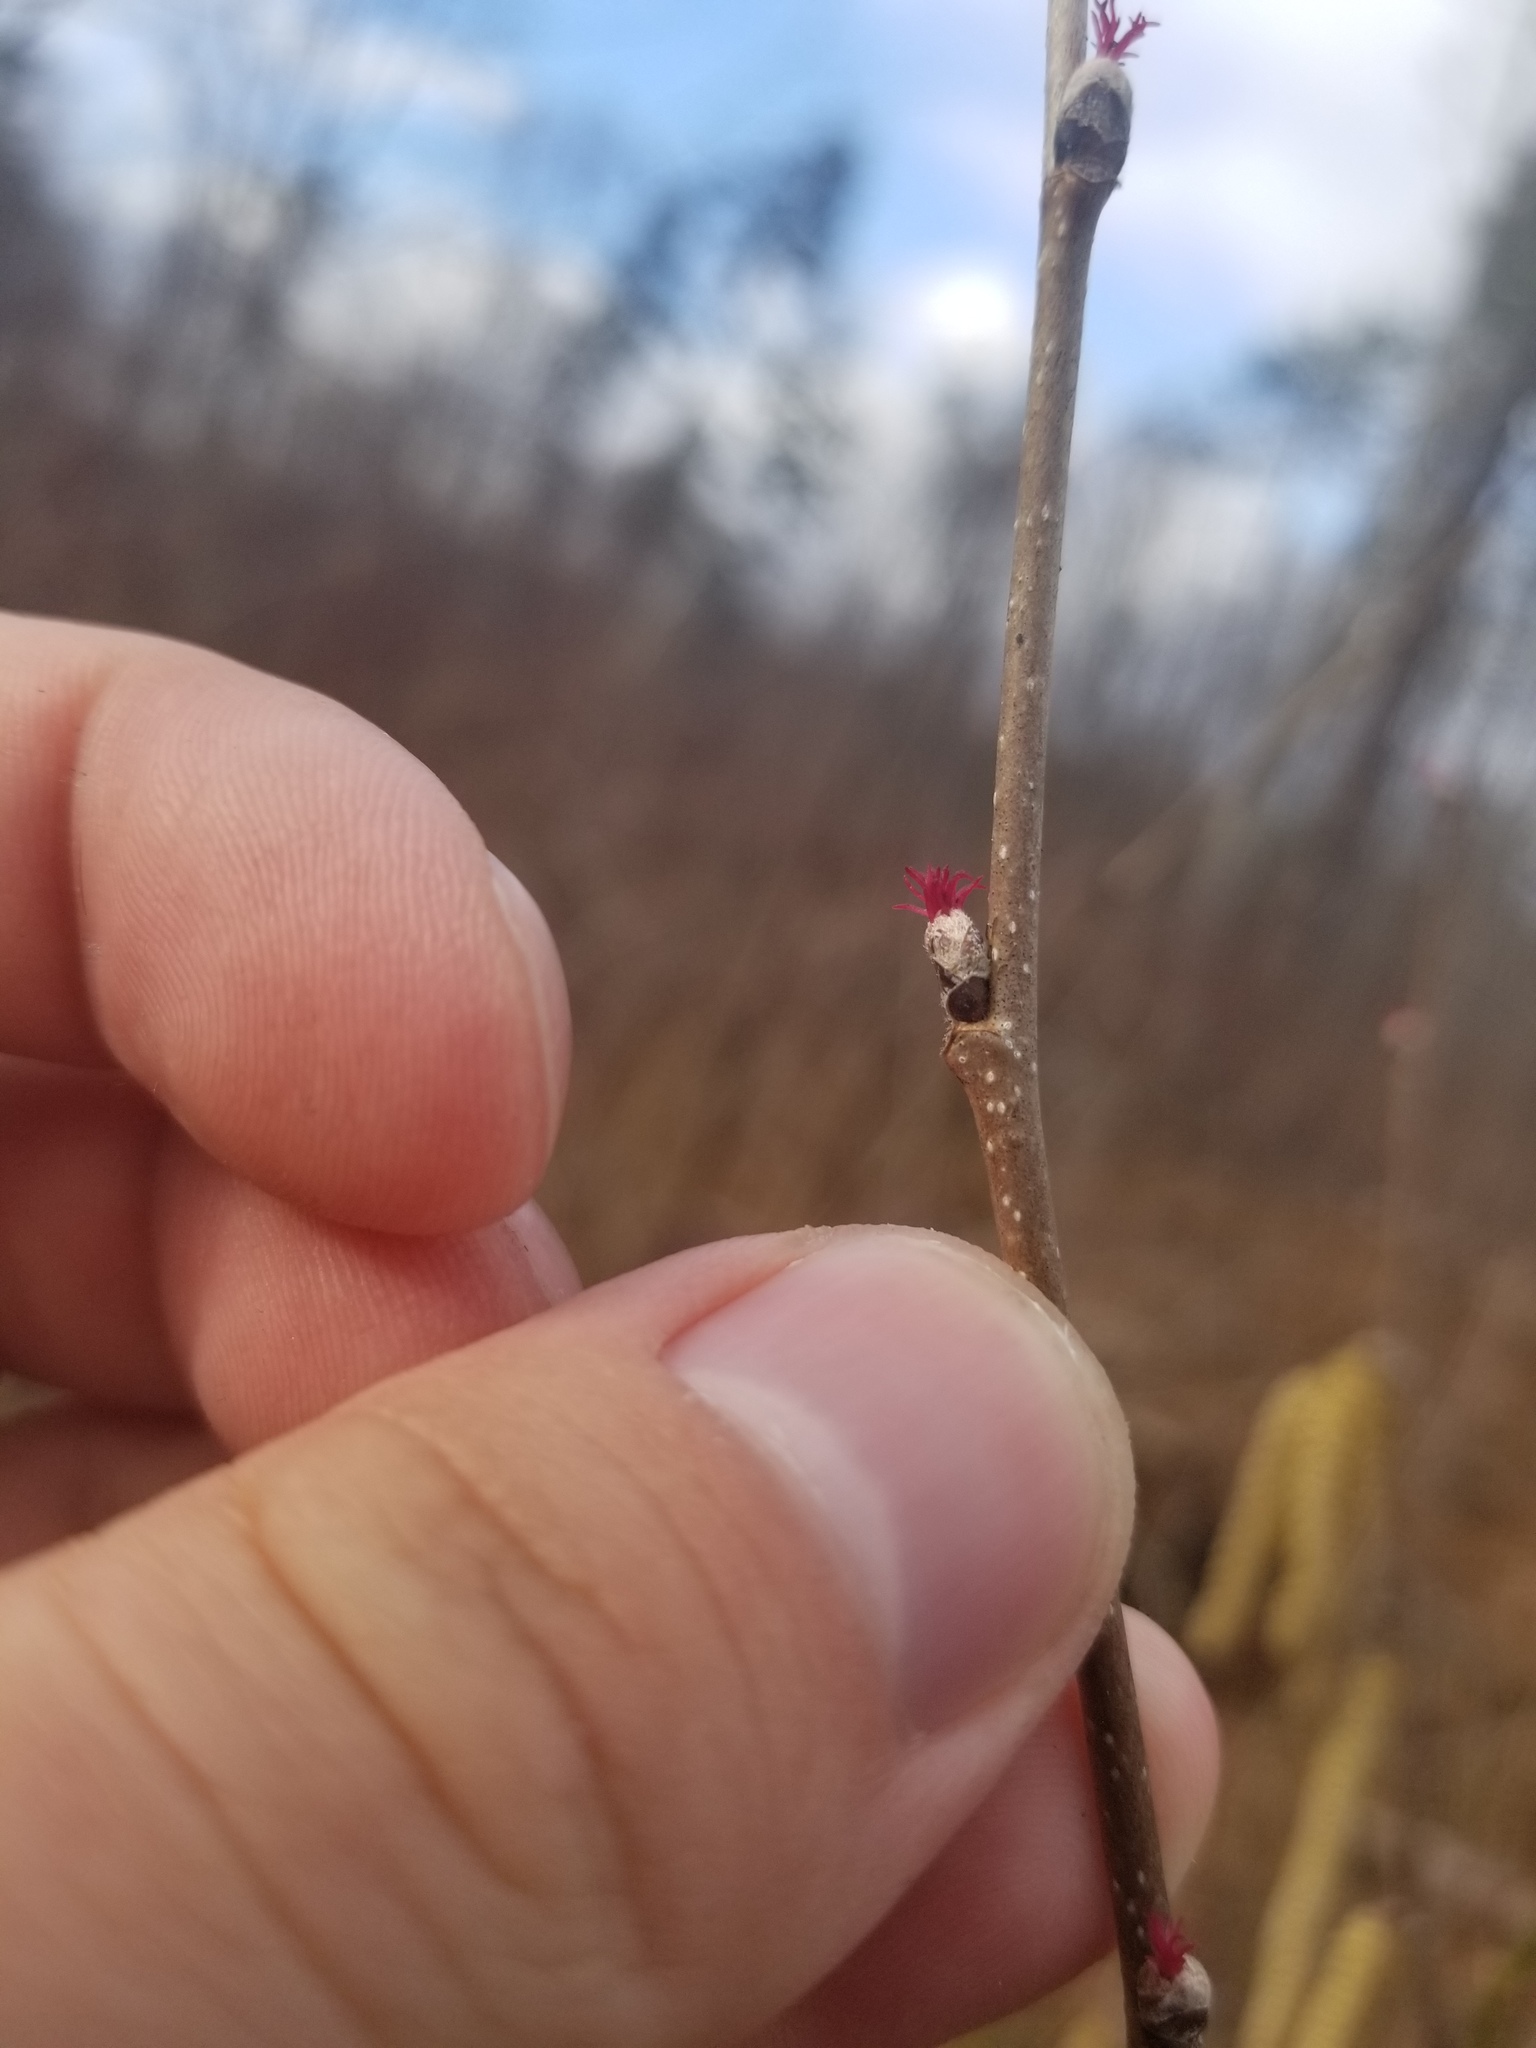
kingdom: Plantae
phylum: Tracheophyta
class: Magnoliopsida
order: Fagales
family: Betulaceae
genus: Corylus
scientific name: Corylus americana
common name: American hazel
